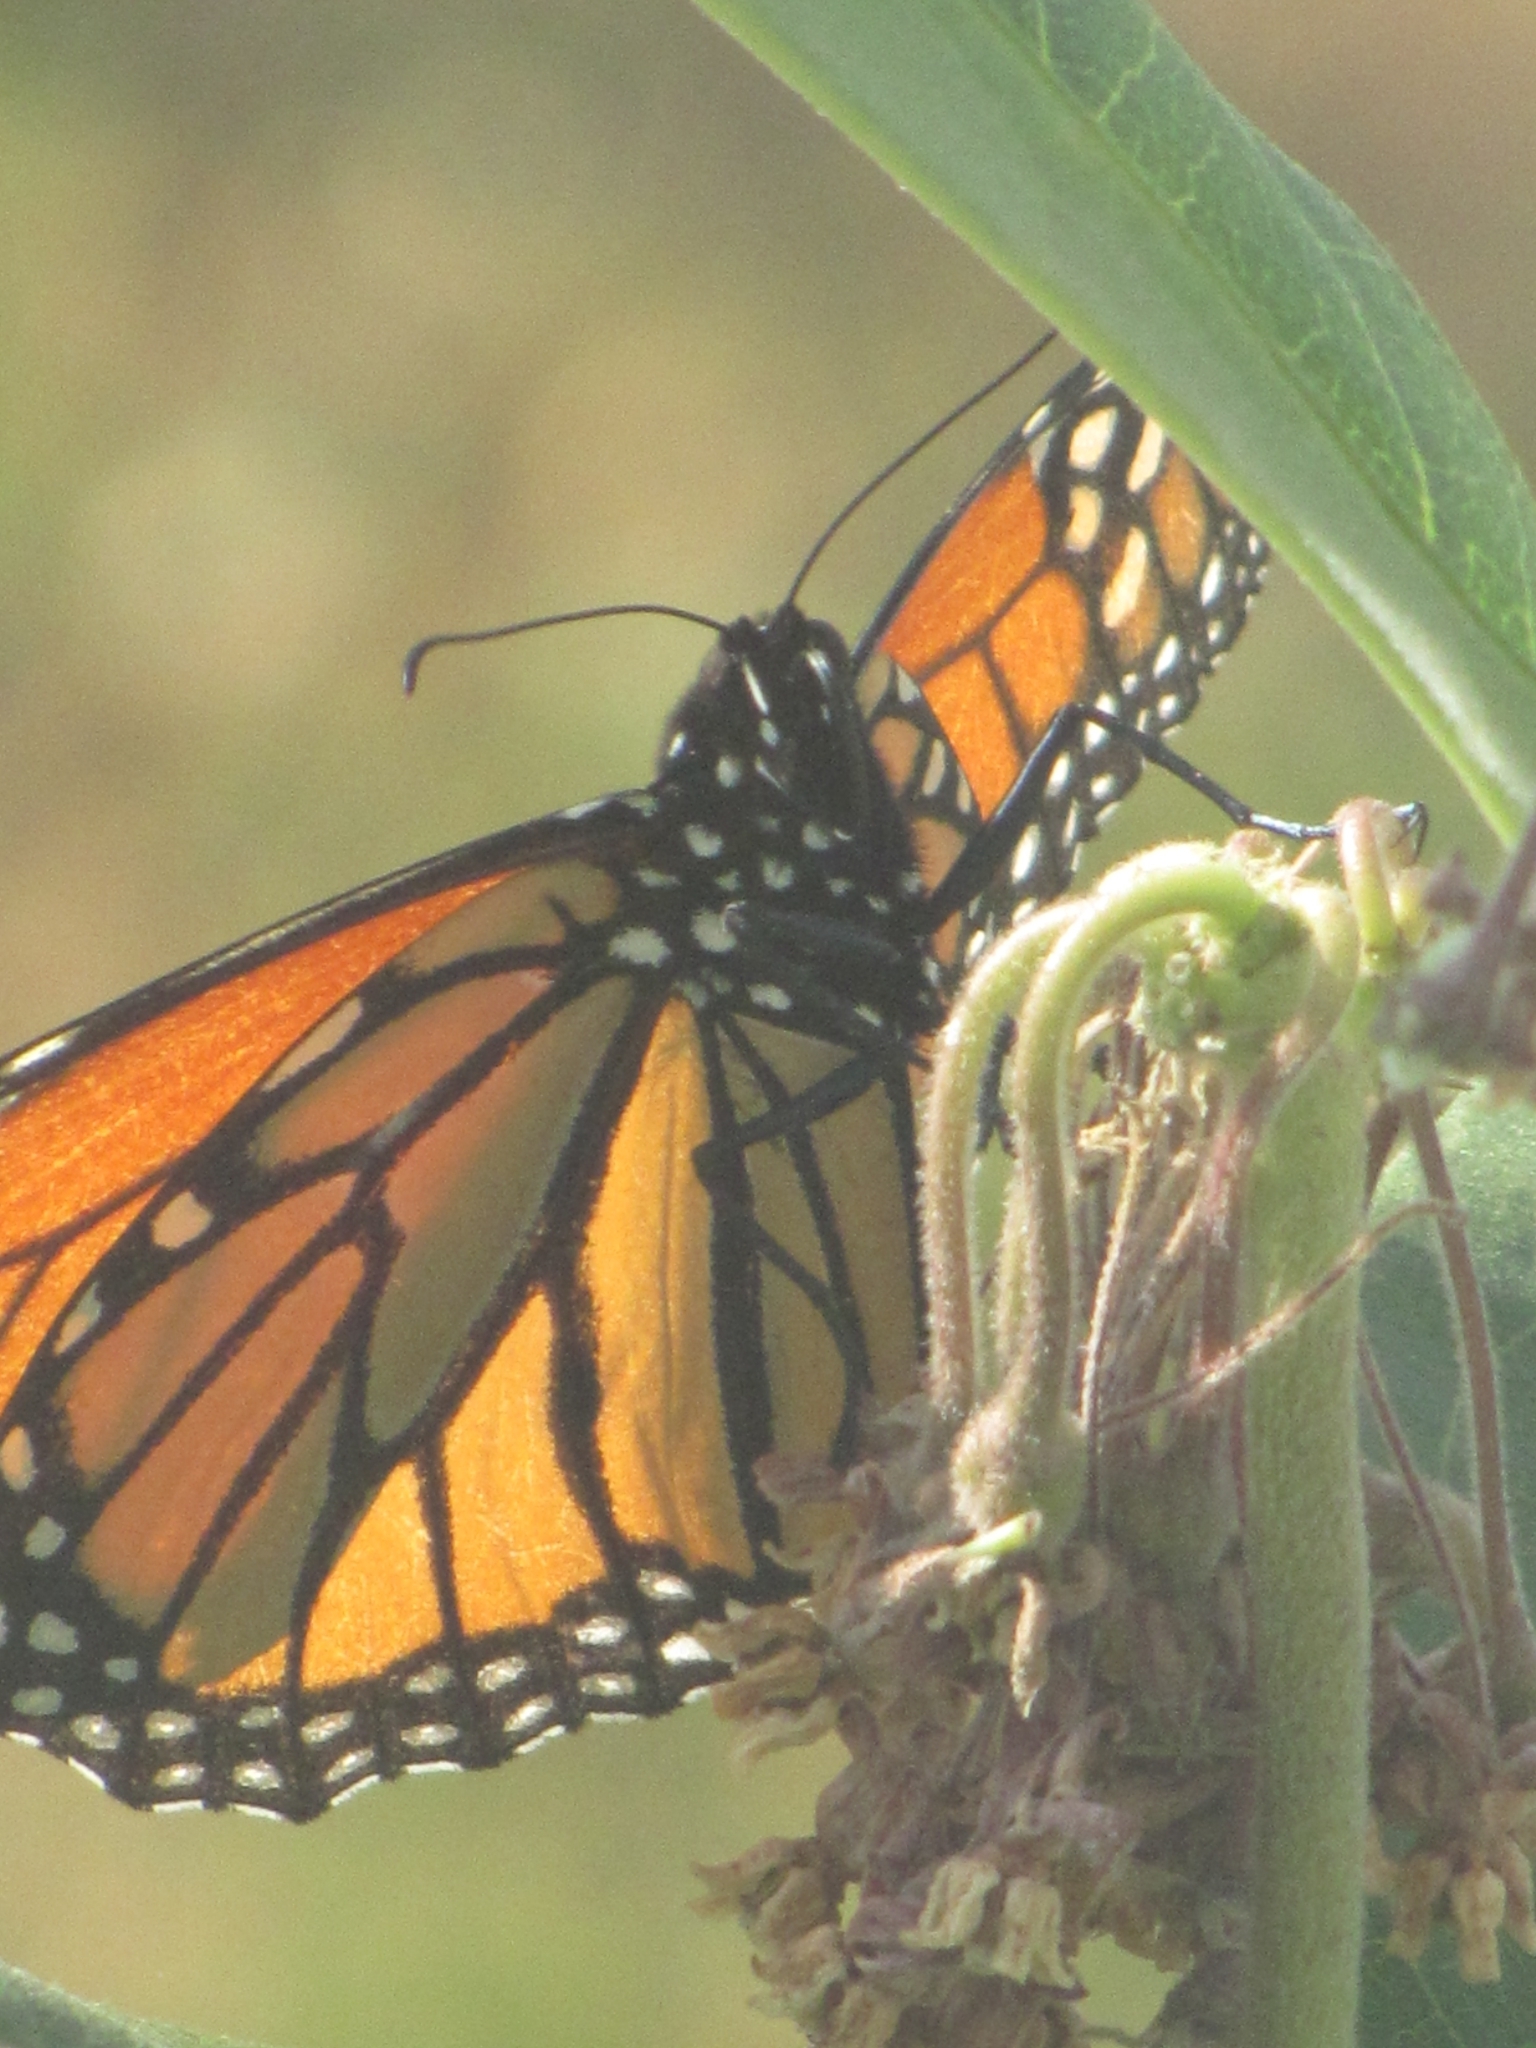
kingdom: Animalia
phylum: Arthropoda
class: Insecta
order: Lepidoptera
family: Nymphalidae
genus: Danaus
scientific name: Danaus plexippus
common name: Monarch
